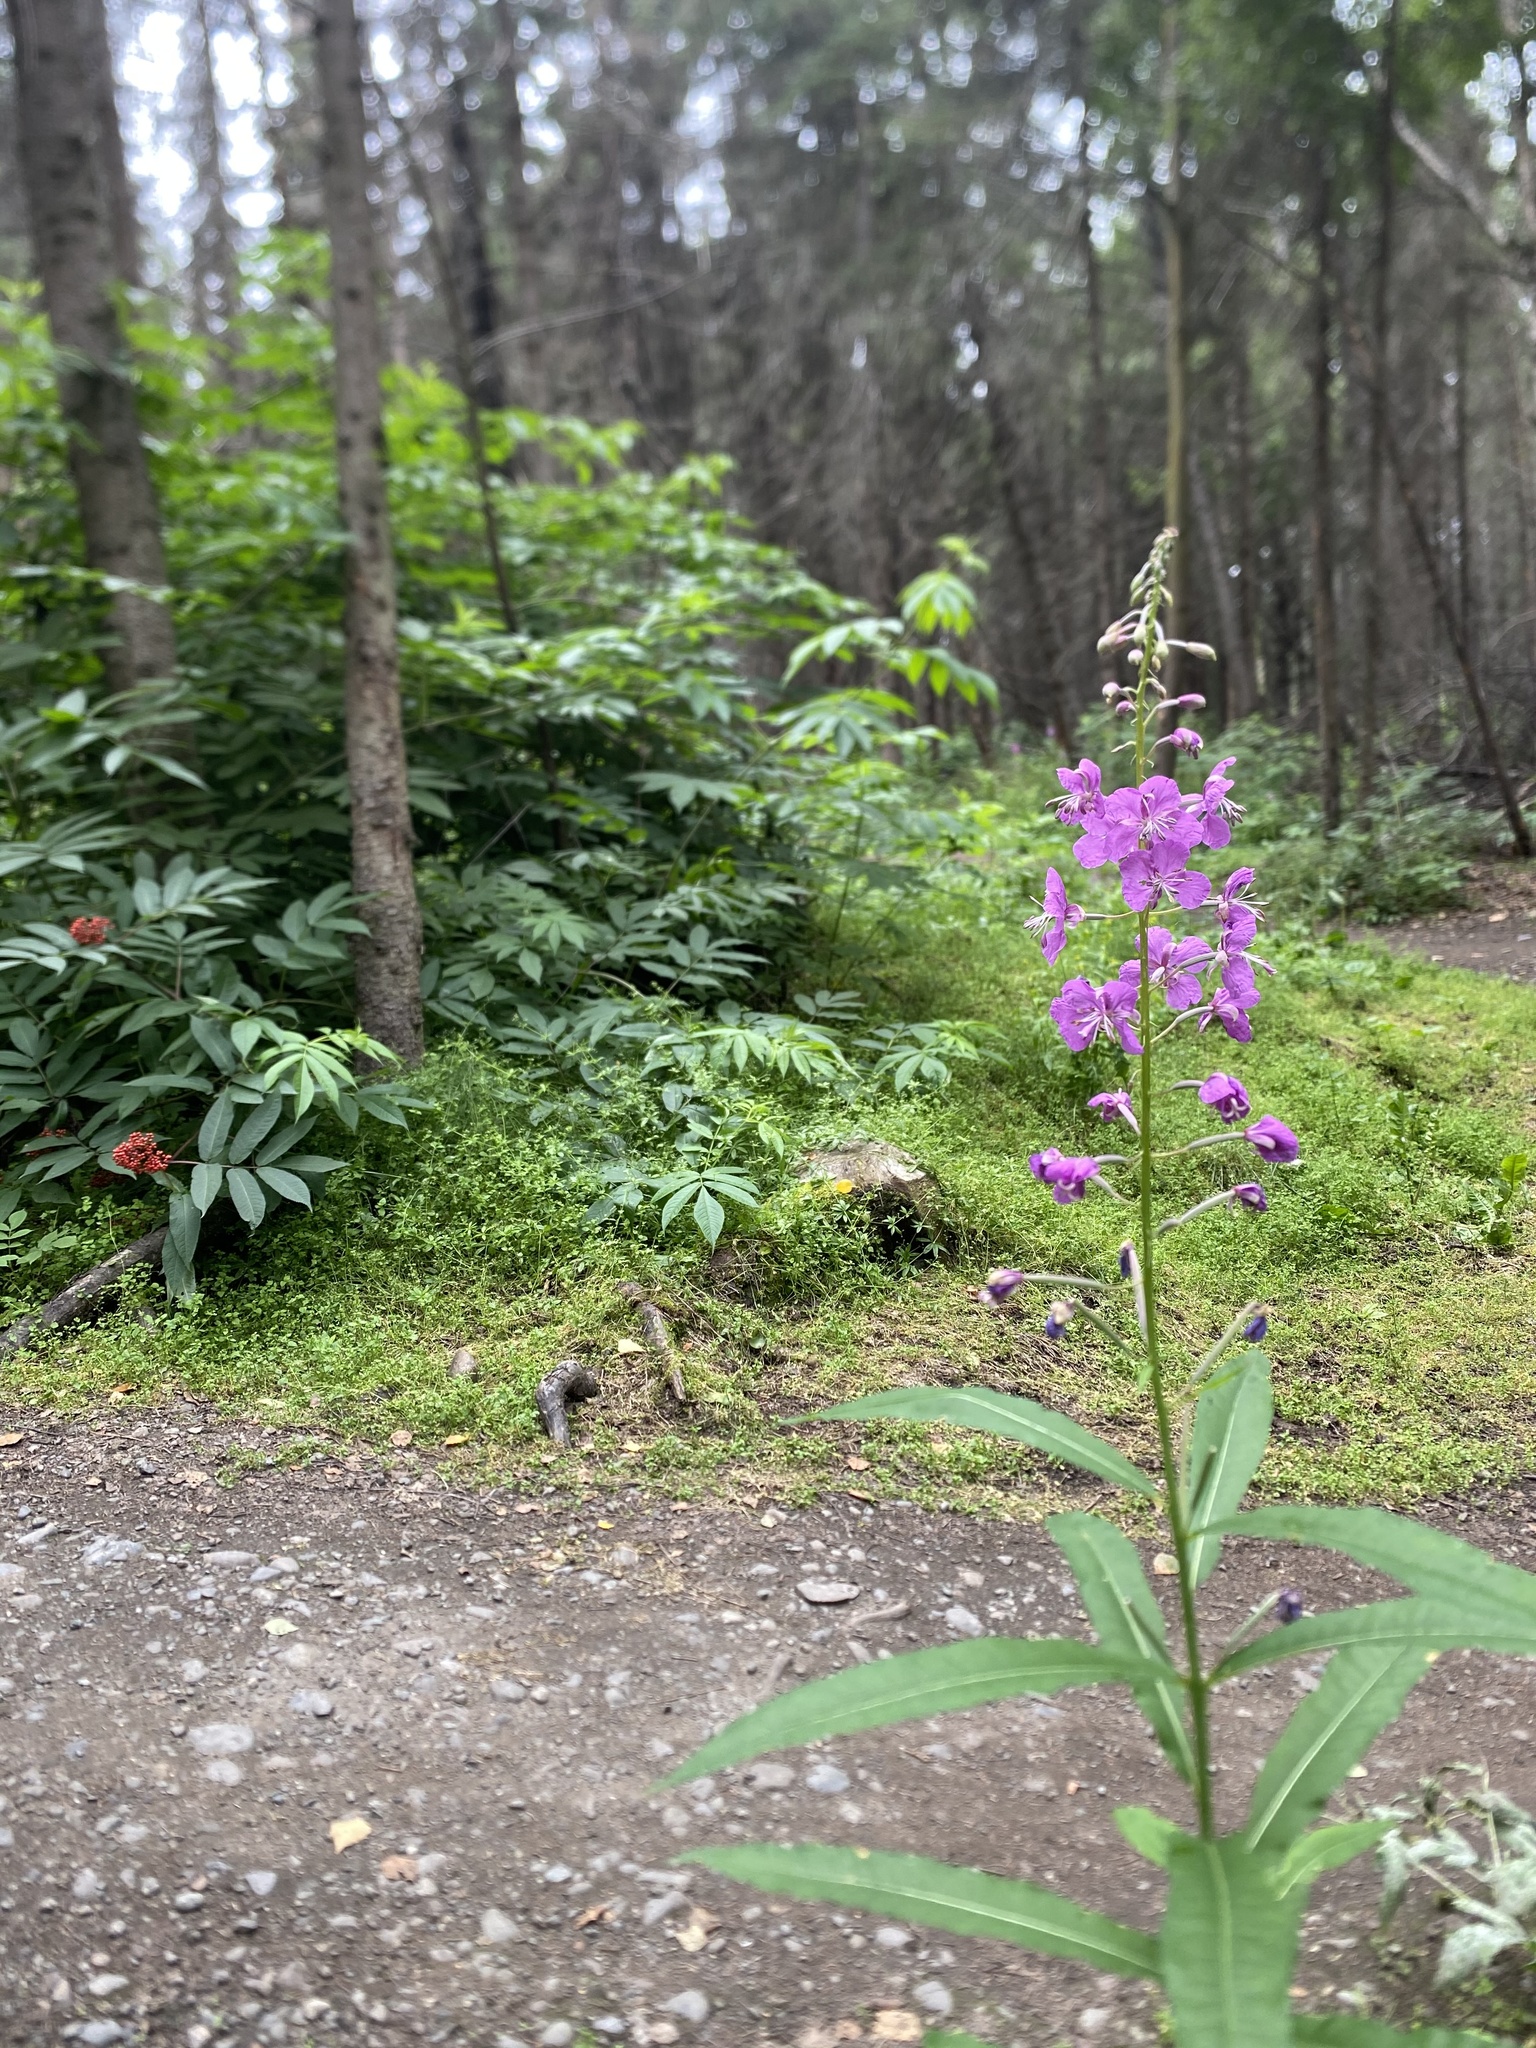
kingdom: Plantae
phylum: Tracheophyta
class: Magnoliopsida
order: Myrtales
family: Onagraceae
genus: Chamaenerion
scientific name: Chamaenerion angustifolium
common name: Fireweed
